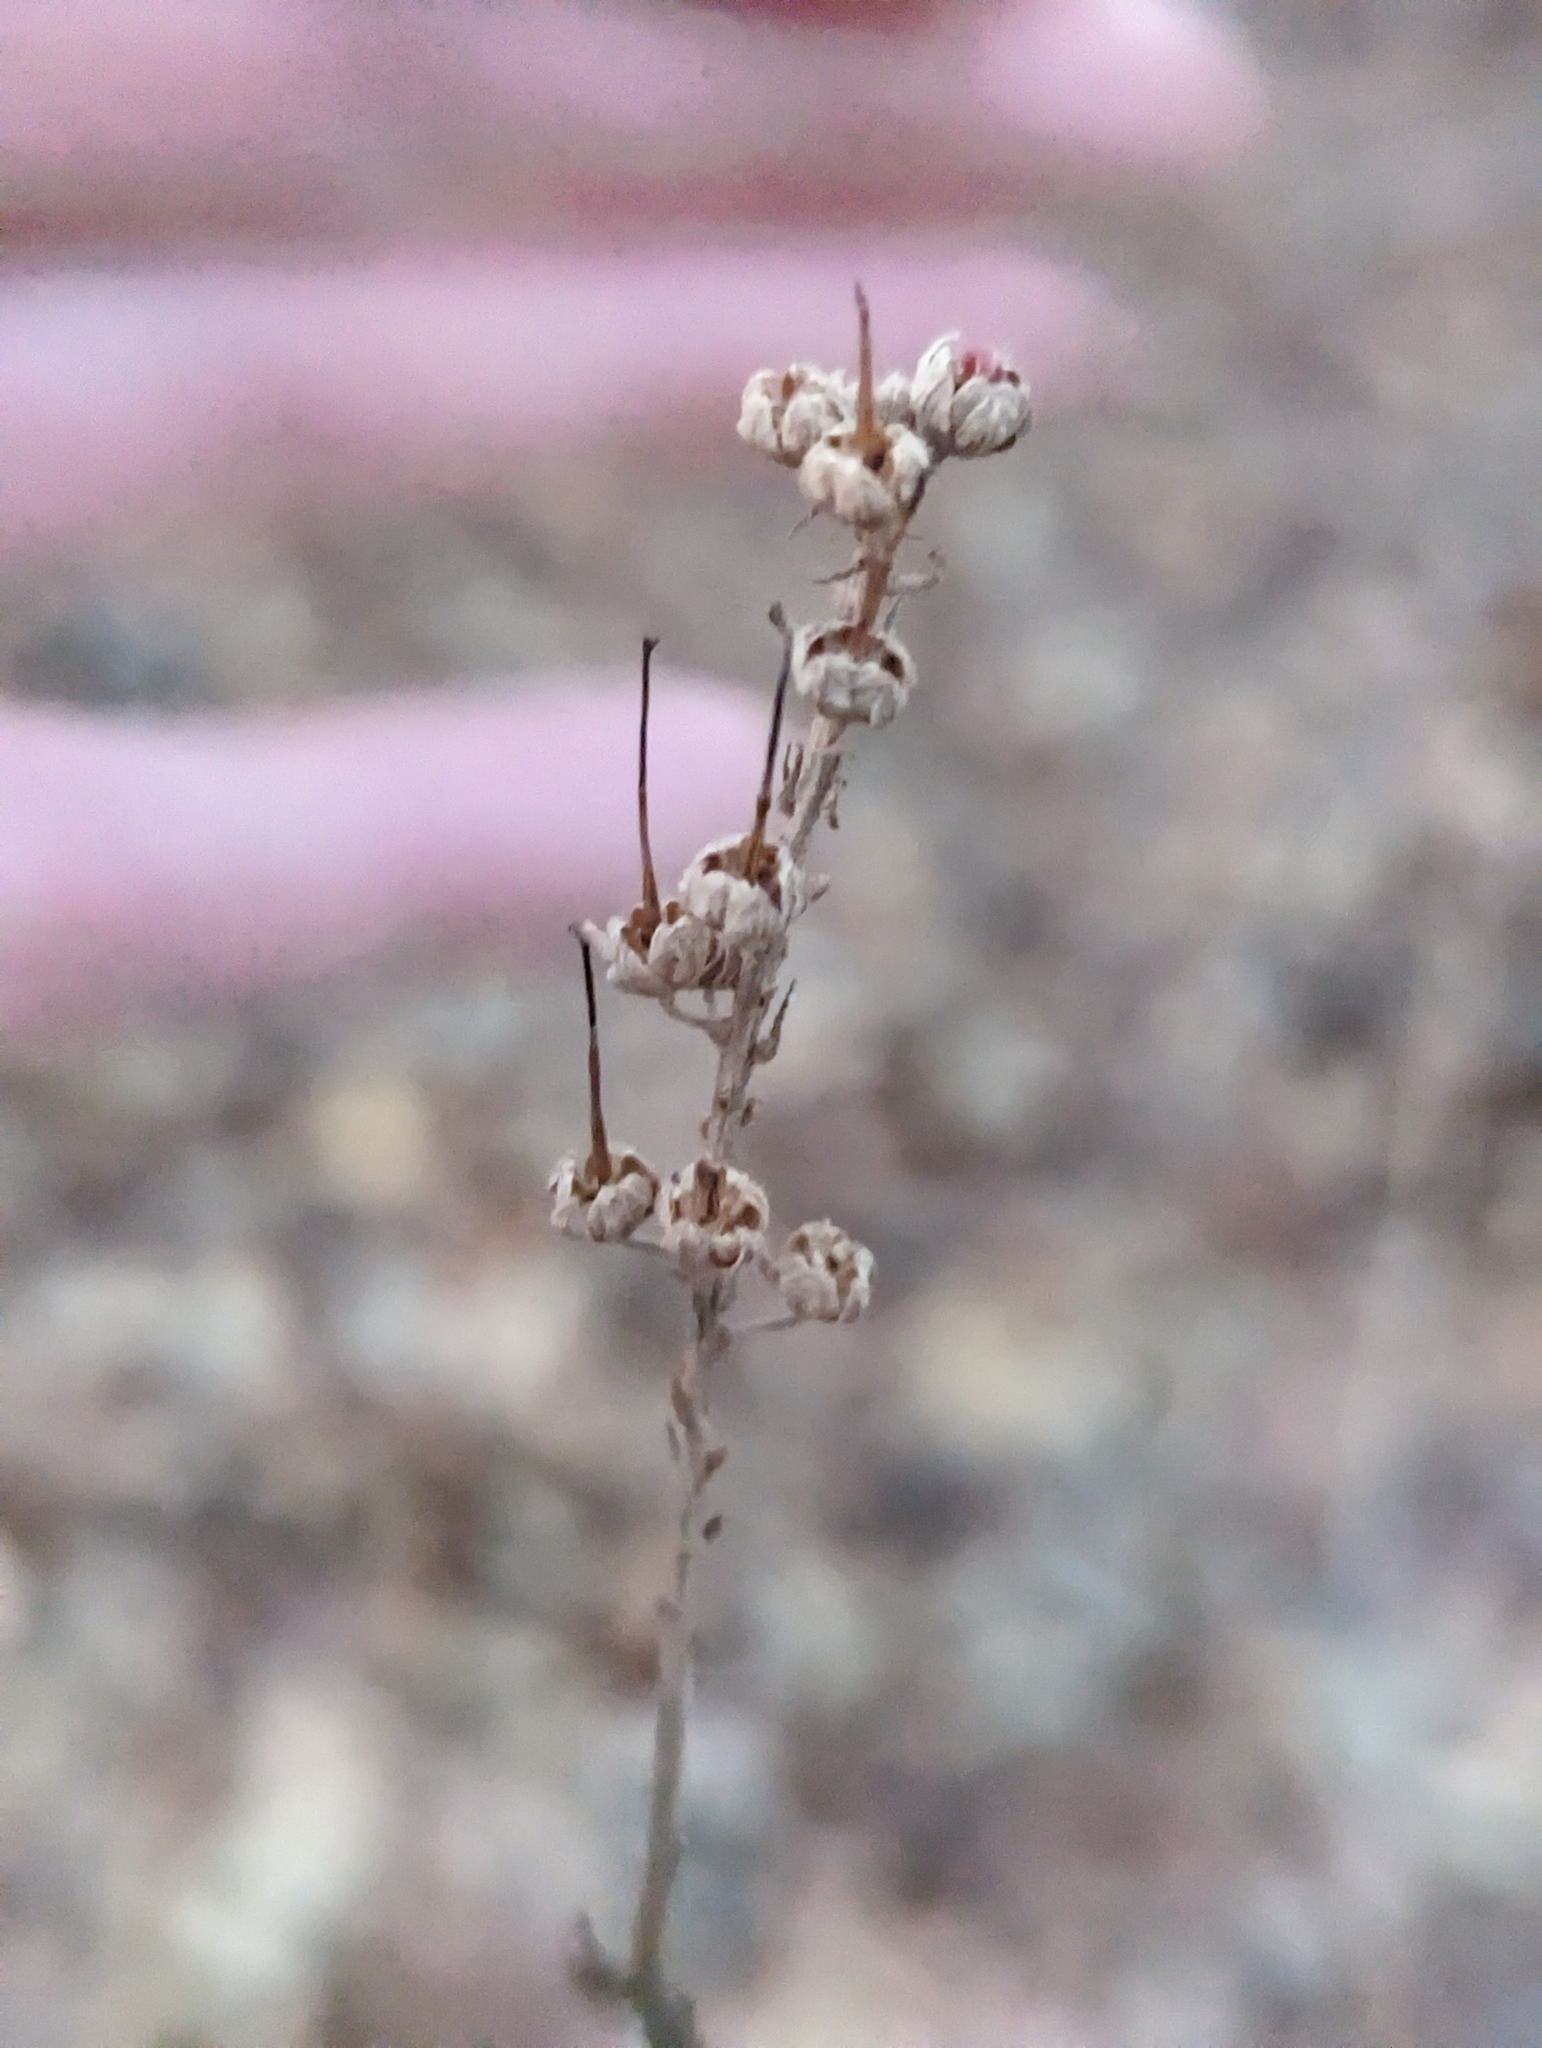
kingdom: Plantae
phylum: Tracheophyta
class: Magnoliopsida
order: Ericales
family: Clethraceae
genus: Clethra
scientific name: Clethra alnifolia
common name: Sweet pepperbush
